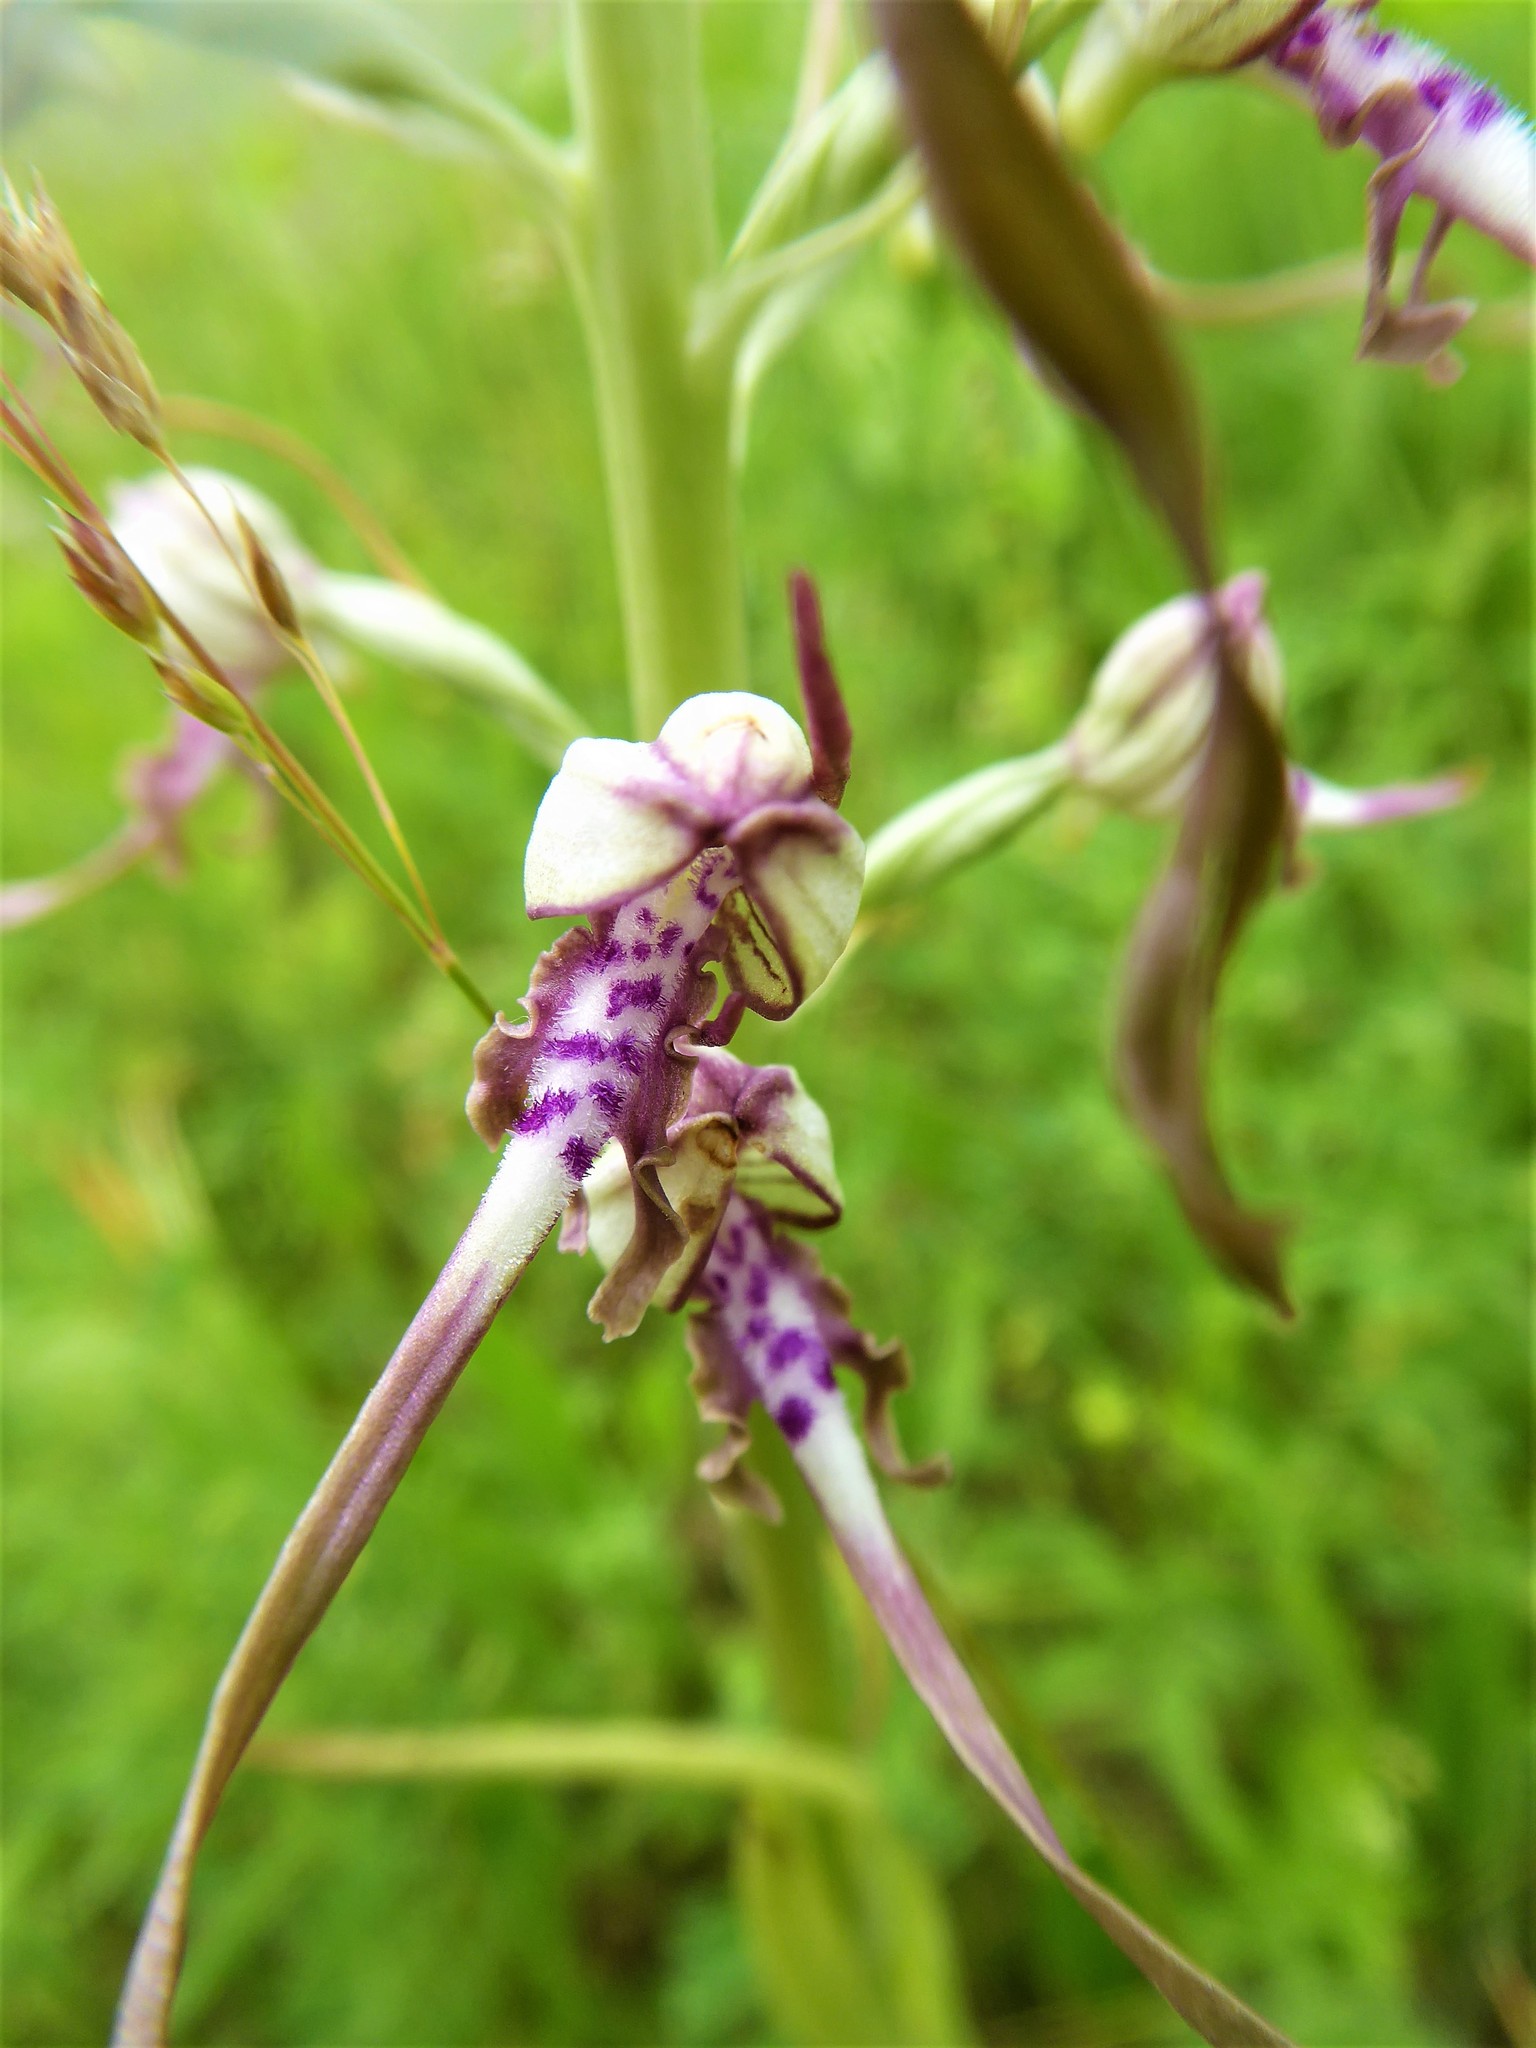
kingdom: Plantae
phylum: Tracheophyta
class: Liliopsida
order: Asparagales
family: Orchidaceae
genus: Himantoglossum
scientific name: Himantoglossum adriaticum
